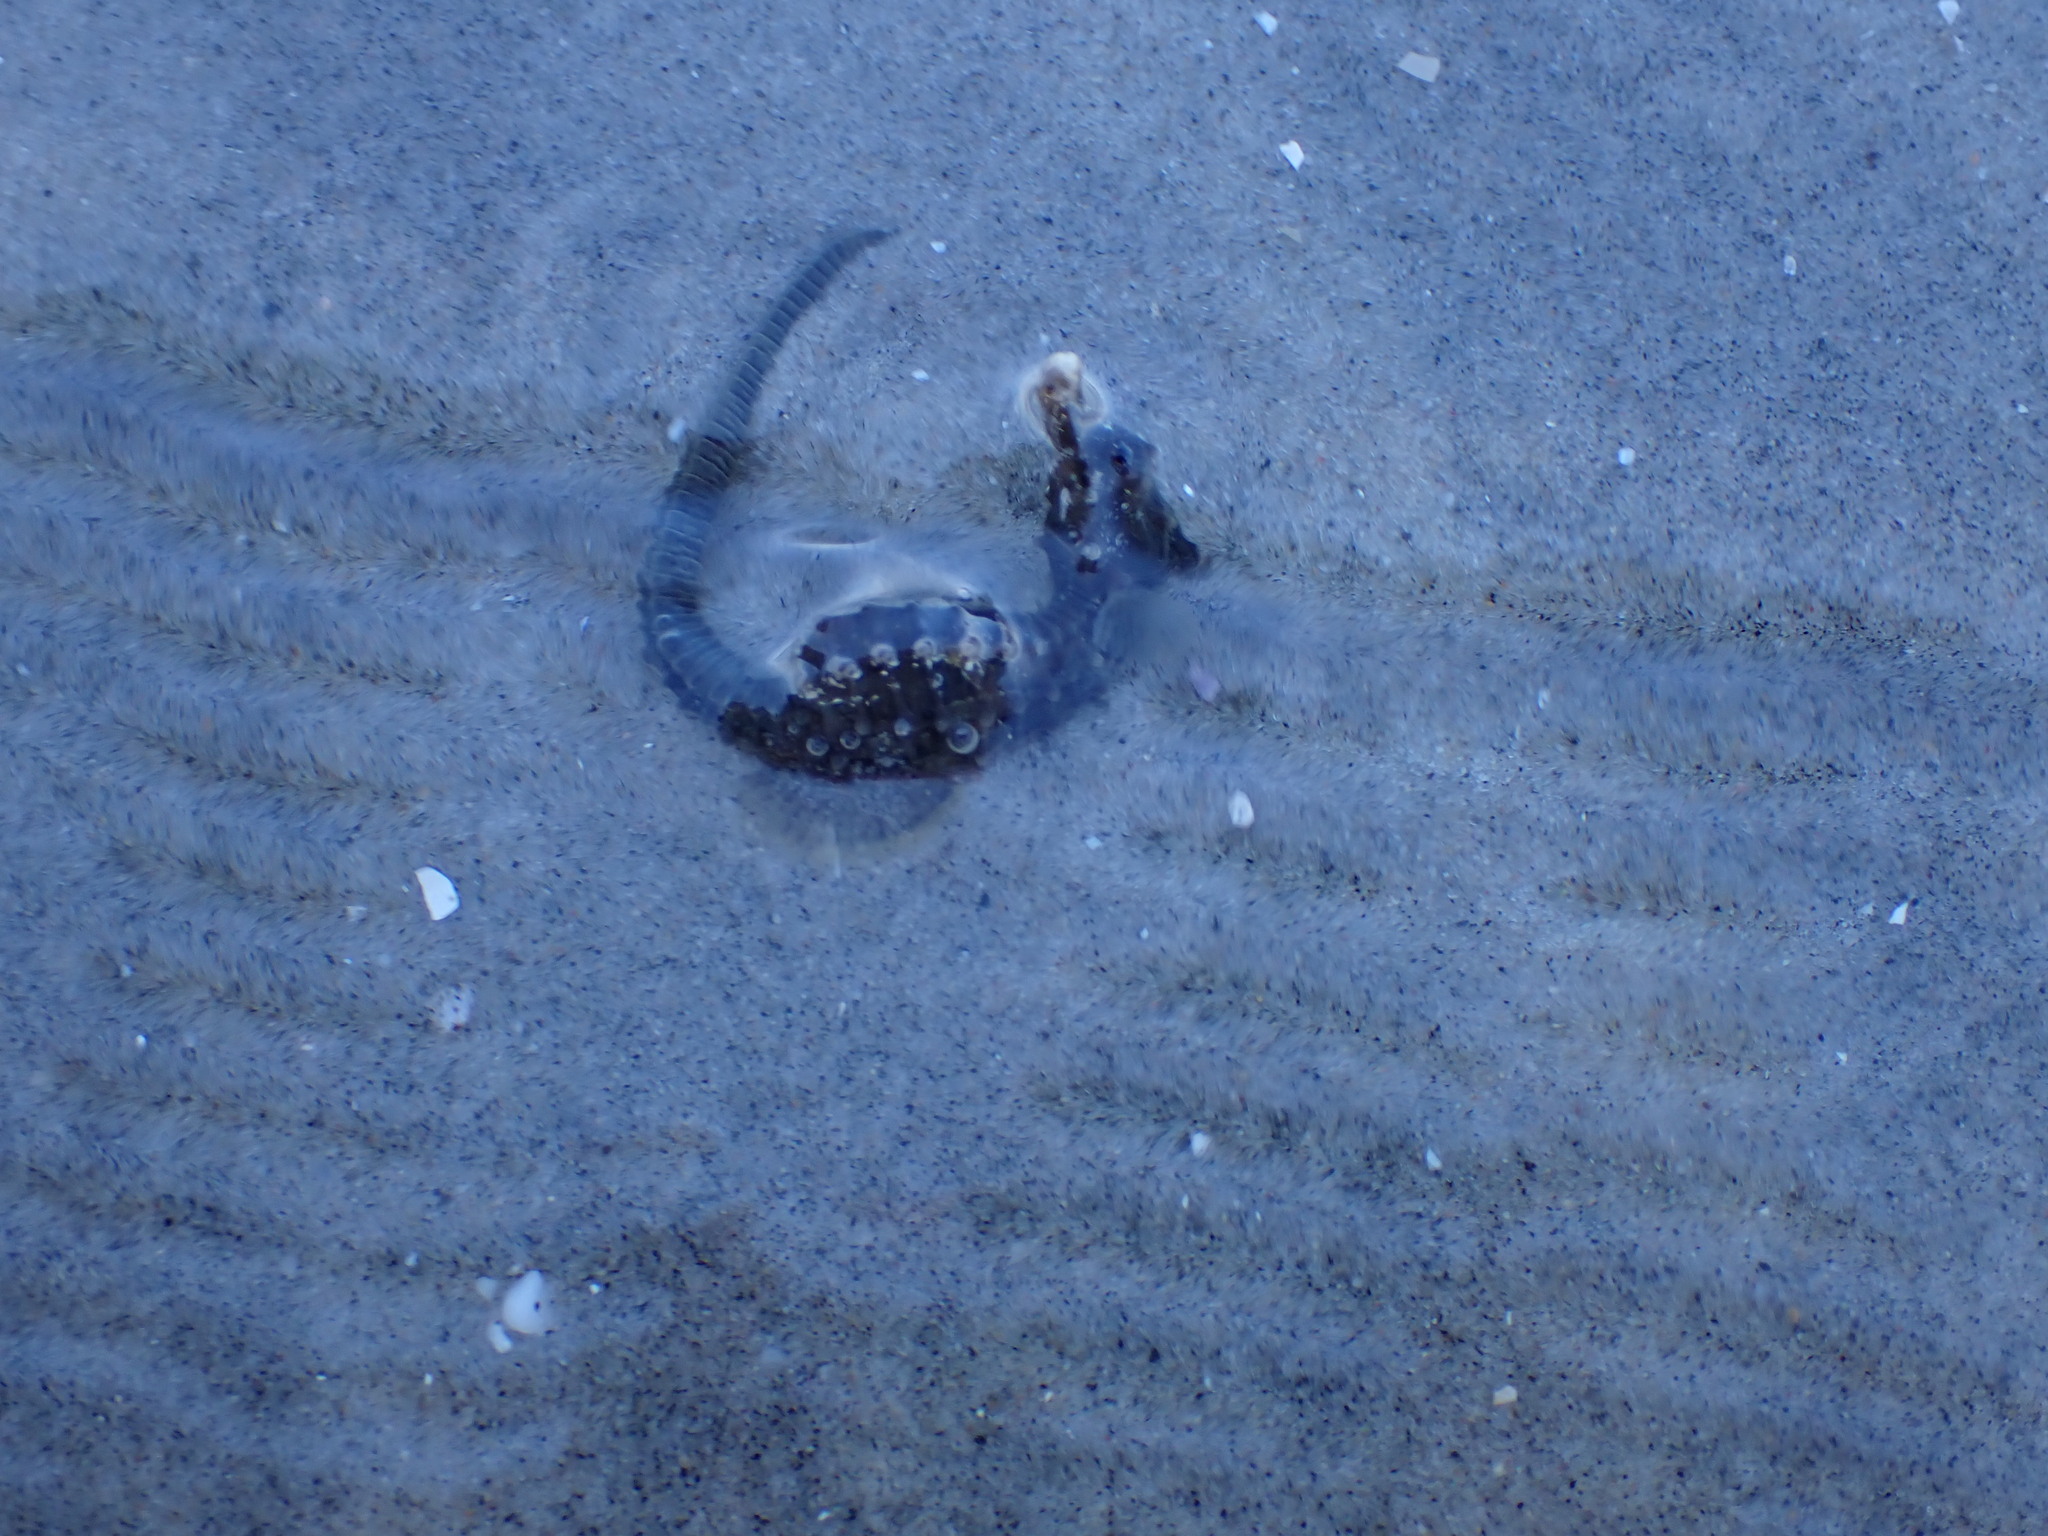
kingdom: Animalia
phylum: Chordata
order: Syngnathiformes
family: Syngnathidae
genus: Hippocampus
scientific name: Hippocampus erectus
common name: Lined seahorse
